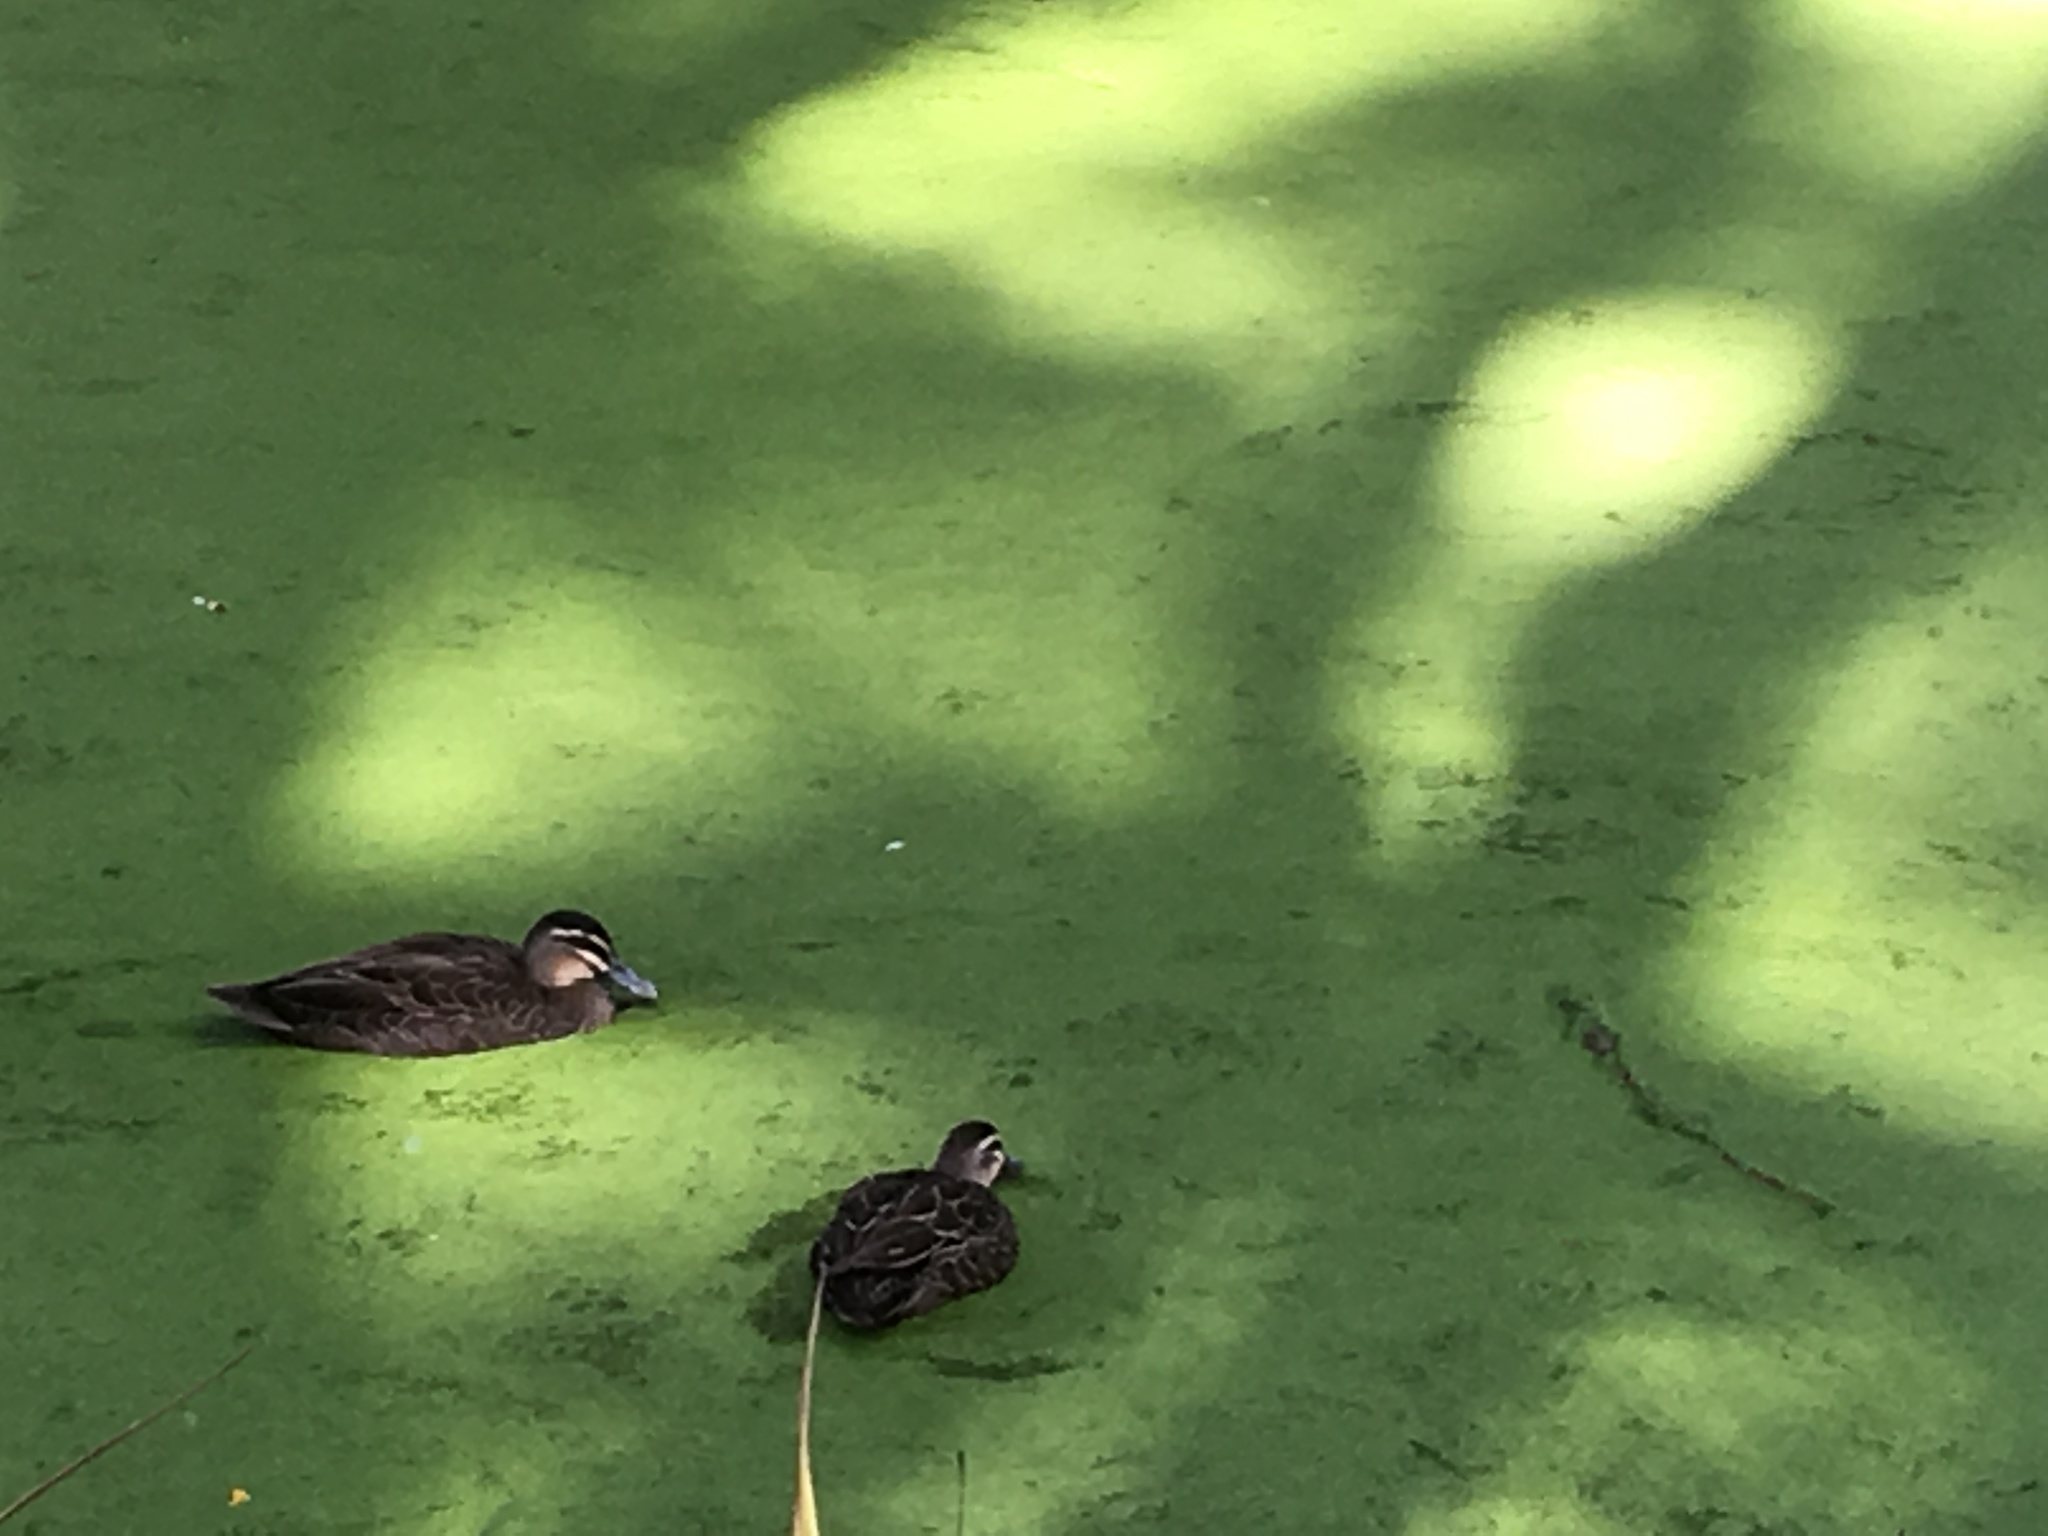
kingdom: Animalia
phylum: Chordata
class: Aves
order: Anseriformes
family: Anatidae
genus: Anas
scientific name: Anas superciliosa
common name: Pacific black duck
